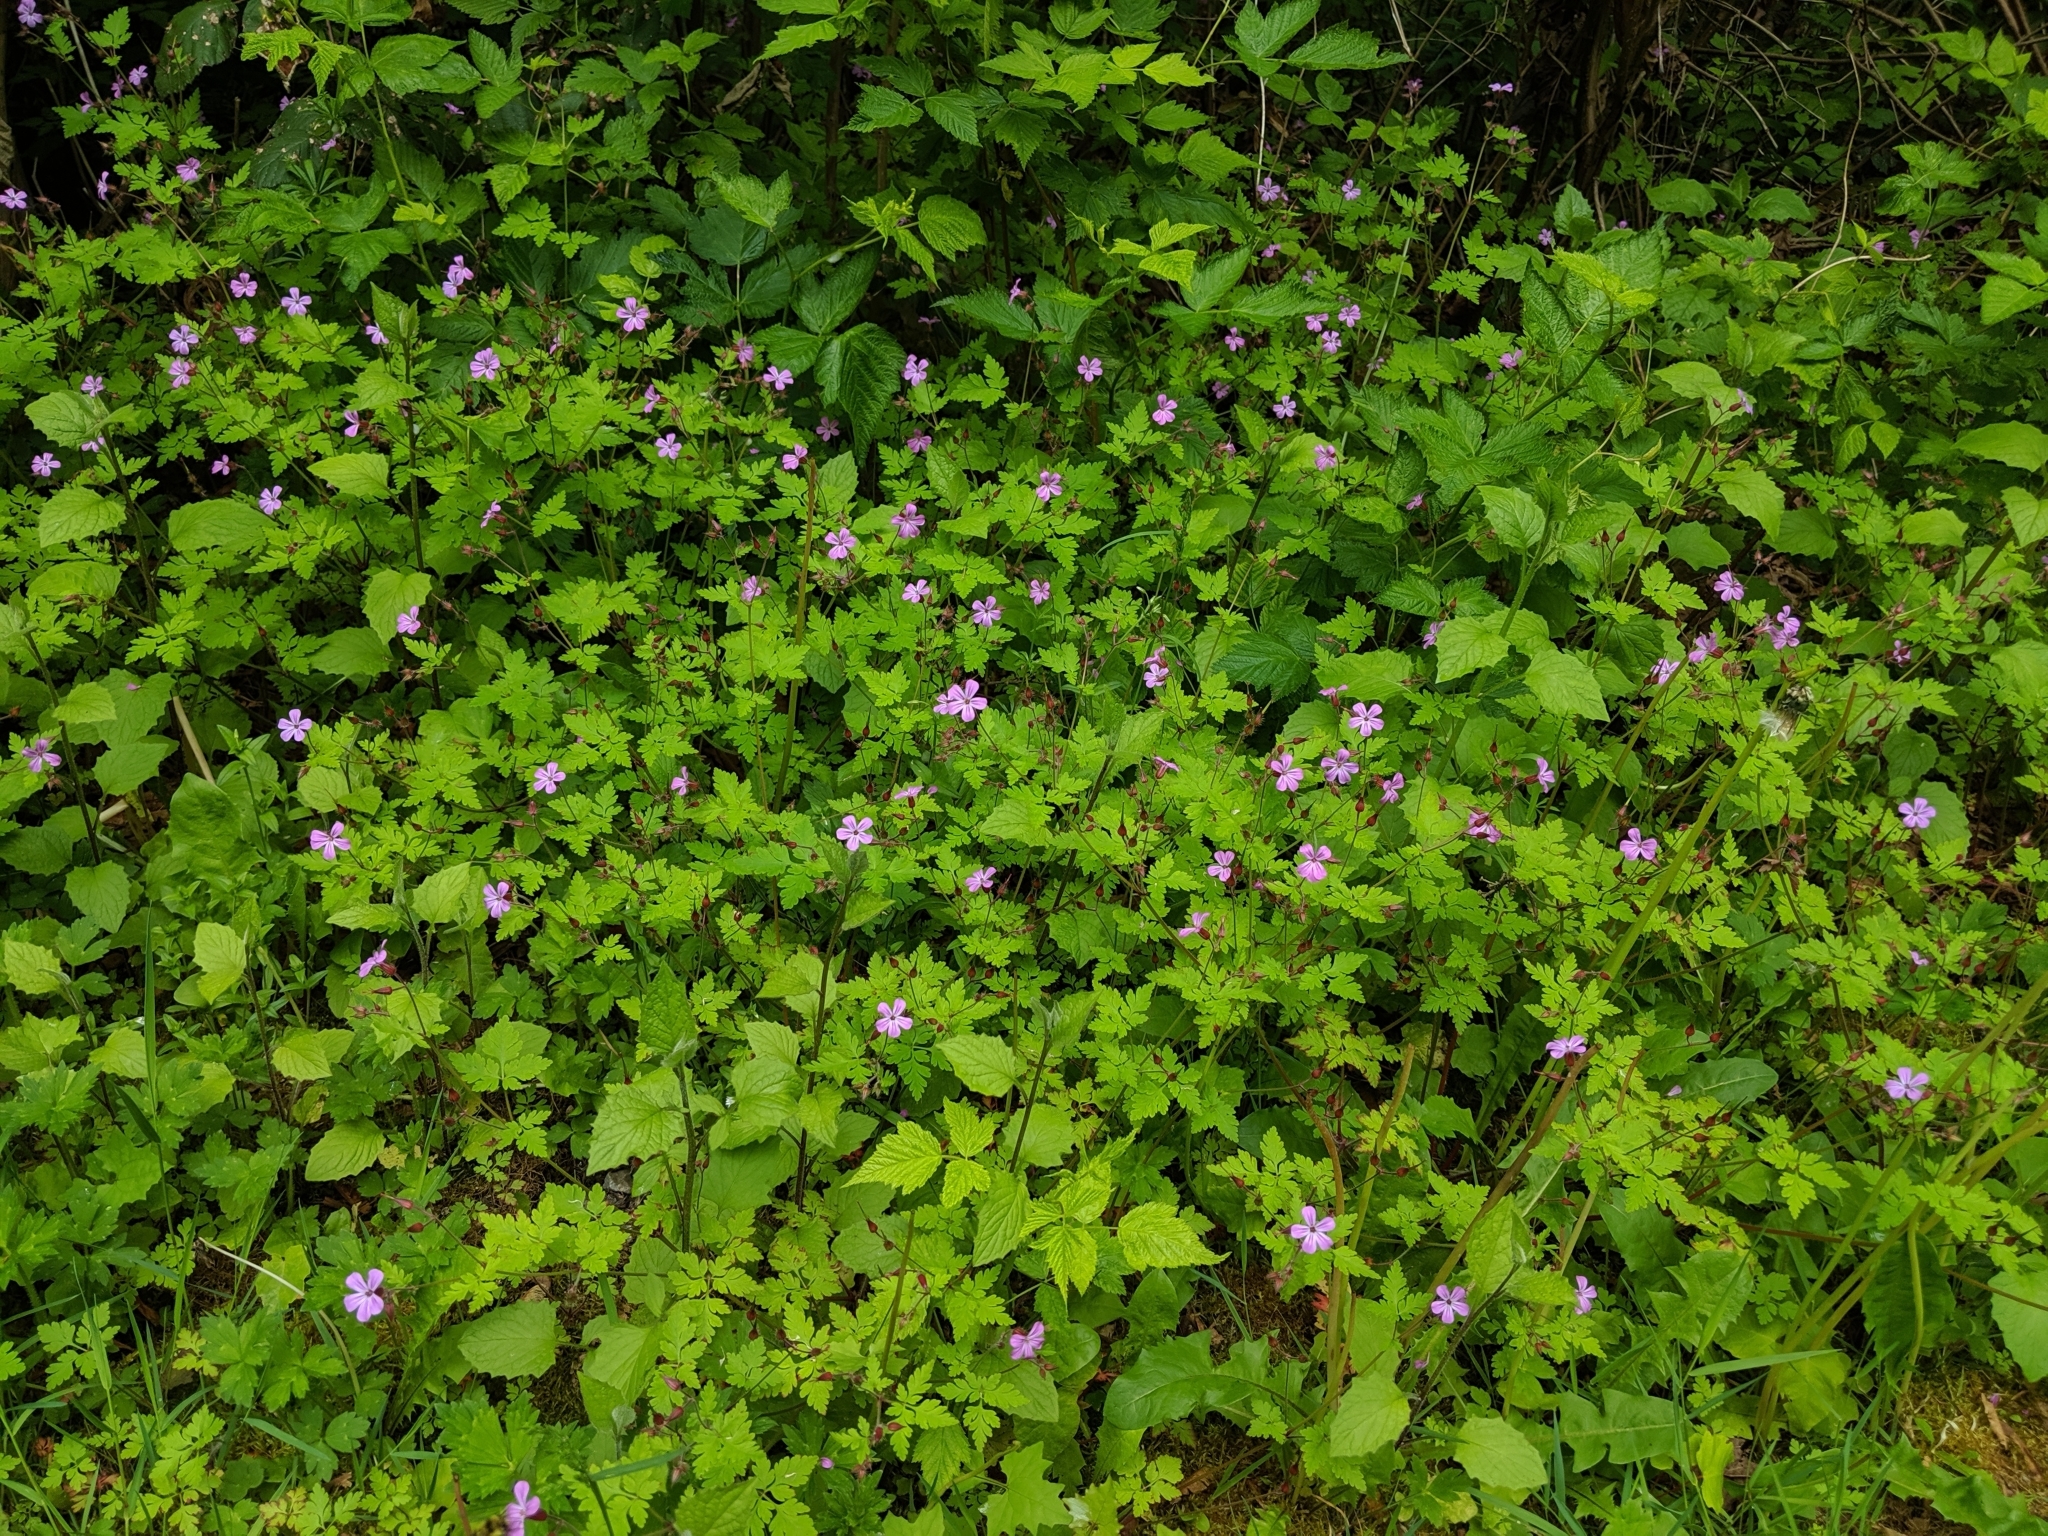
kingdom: Plantae
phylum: Tracheophyta
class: Magnoliopsida
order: Geraniales
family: Geraniaceae
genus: Geranium
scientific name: Geranium robertianum
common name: Herb-robert
